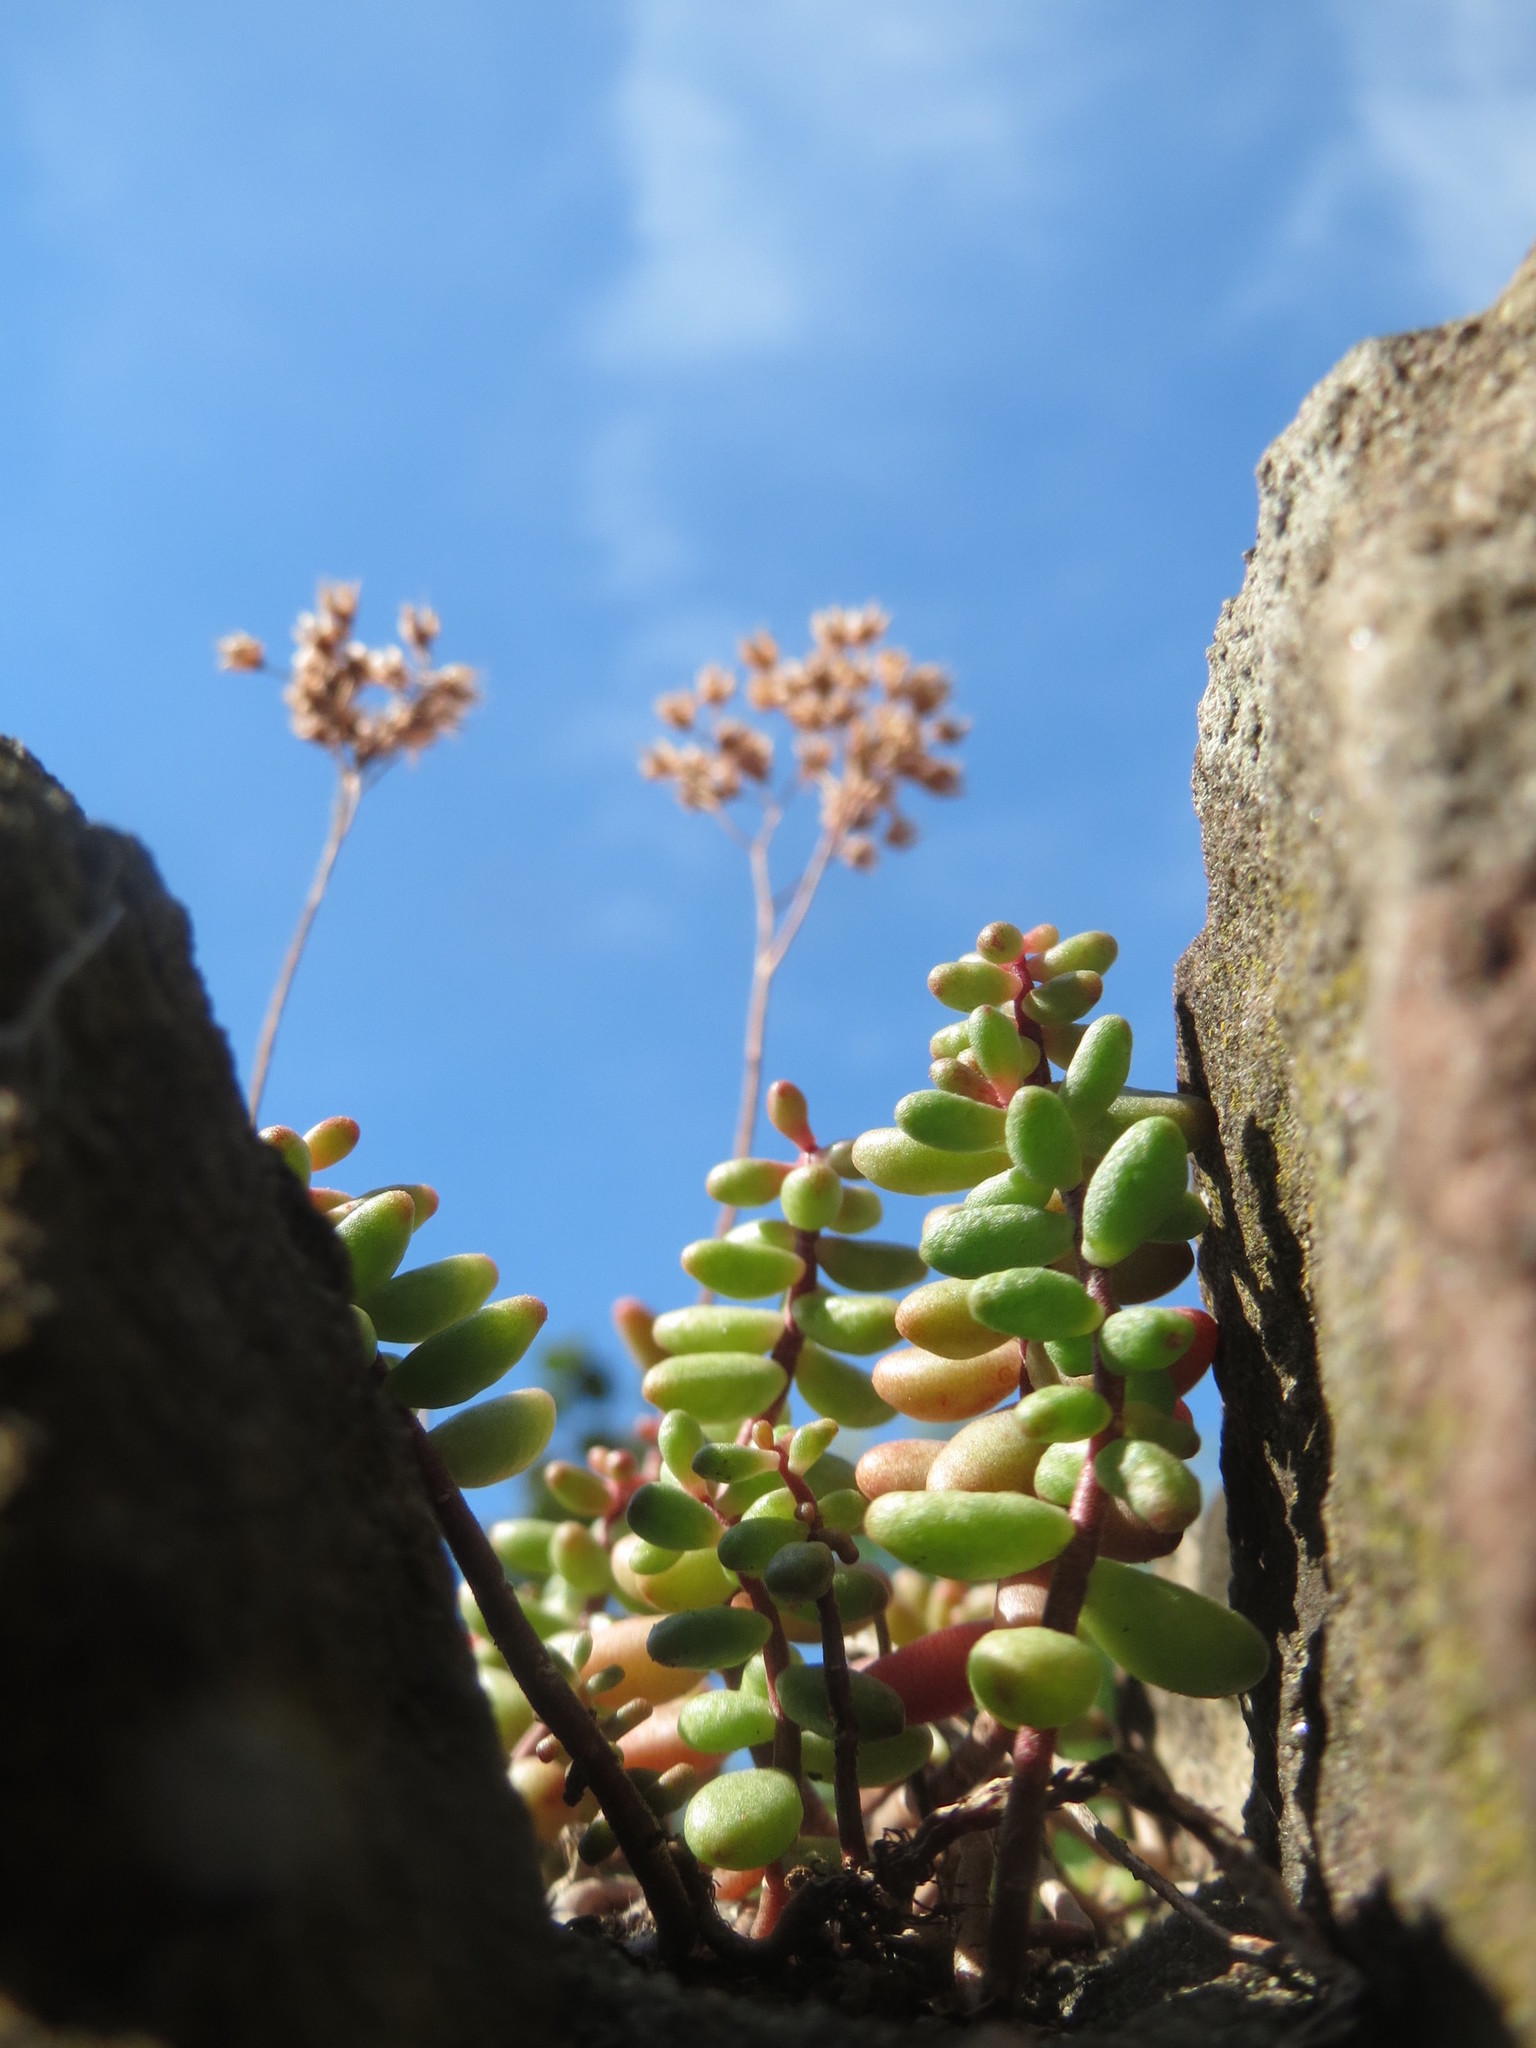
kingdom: Plantae
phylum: Tracheophyta
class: Magnoliopsida
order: Saxifragales
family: Crassulaceae
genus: Sedum
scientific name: Sedum album
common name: White stonecrop
